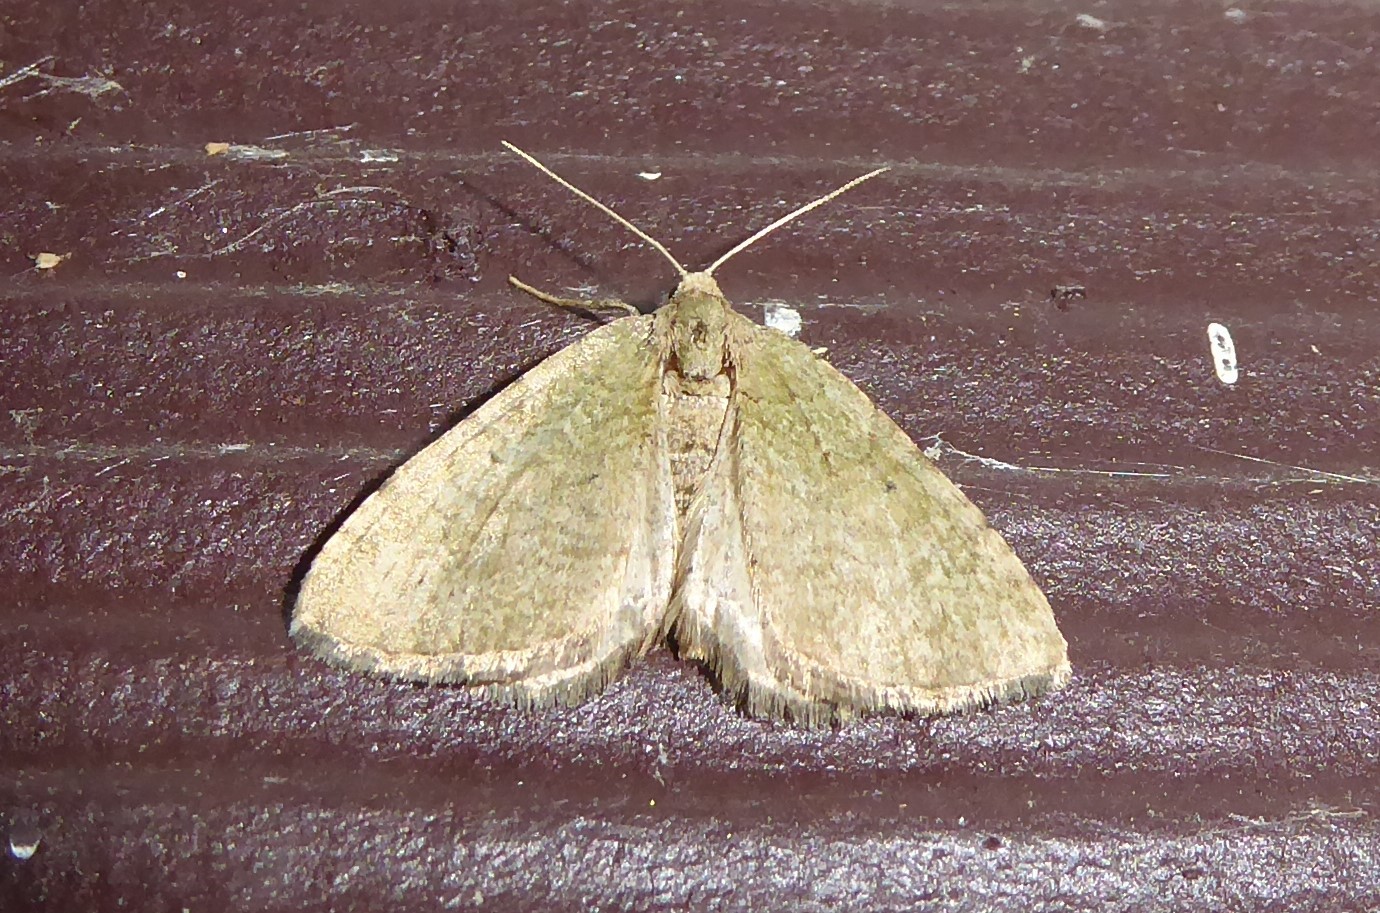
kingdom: Animalia
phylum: Arthropoda
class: Insecta
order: Lepidoptera
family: Geometridae
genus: Epyaxa
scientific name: Epyaxa rosearia
